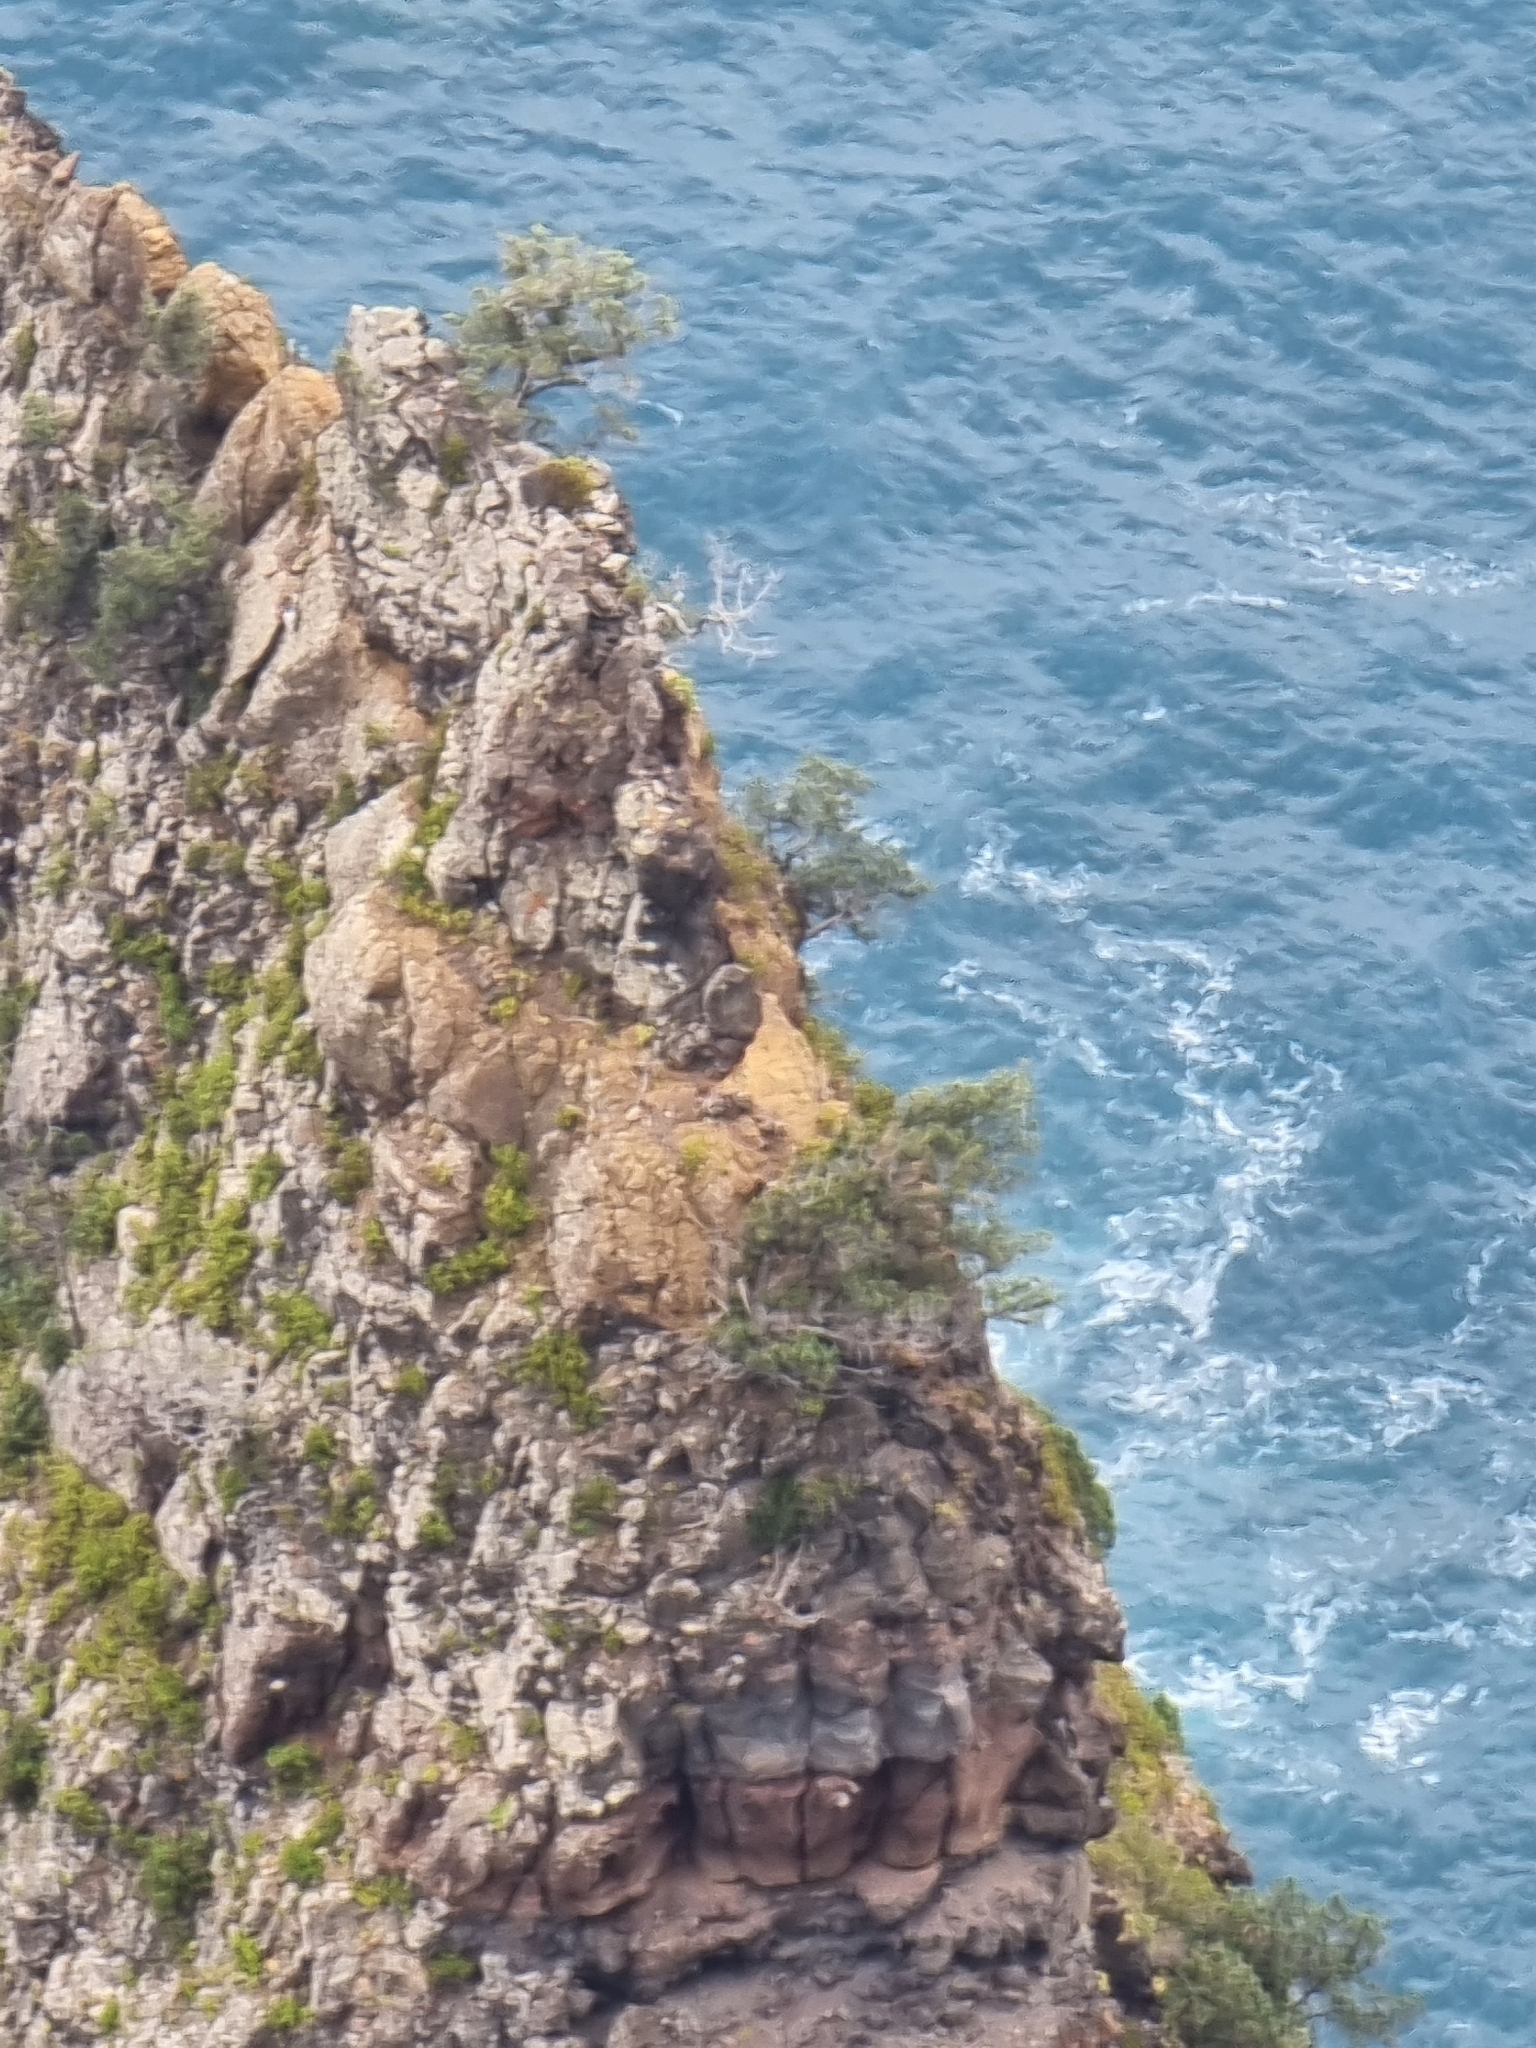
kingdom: Plantae
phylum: Tracheophyta
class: Pinopsida
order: Pinales
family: Cupressaceae
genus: Juniperus
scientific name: Juniperus canariensis
